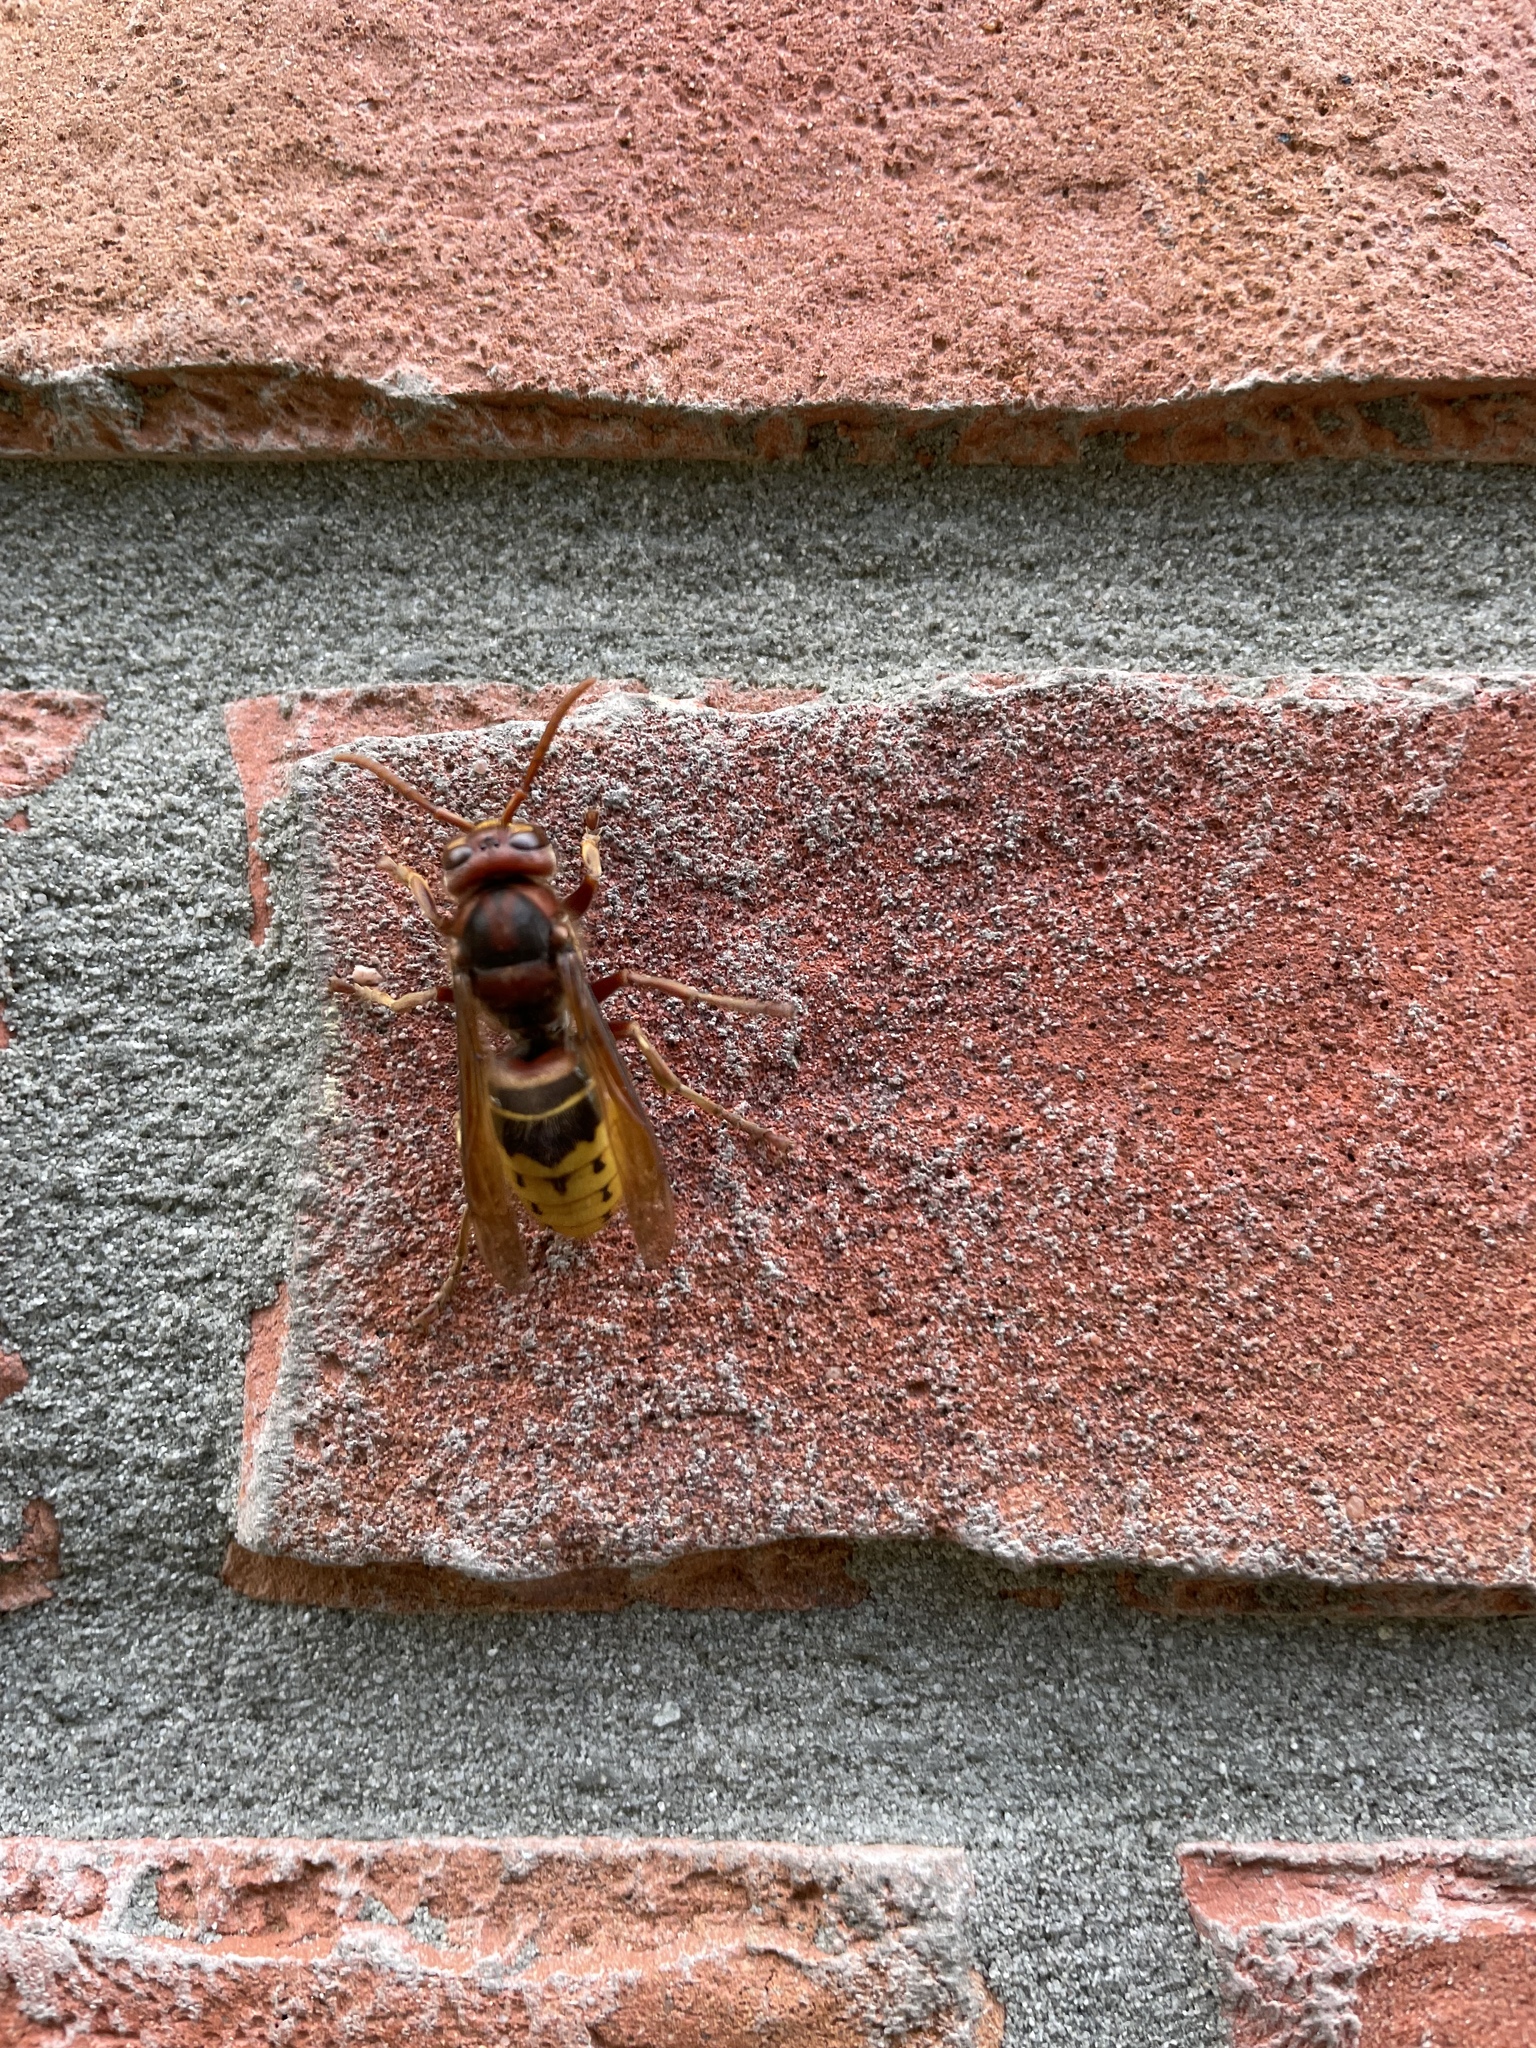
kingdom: Animalia
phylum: Arthropoda
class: Insecta
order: Hymenoptera
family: Vespidae
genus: Vespa
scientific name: Vespa crabro
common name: Hornet
